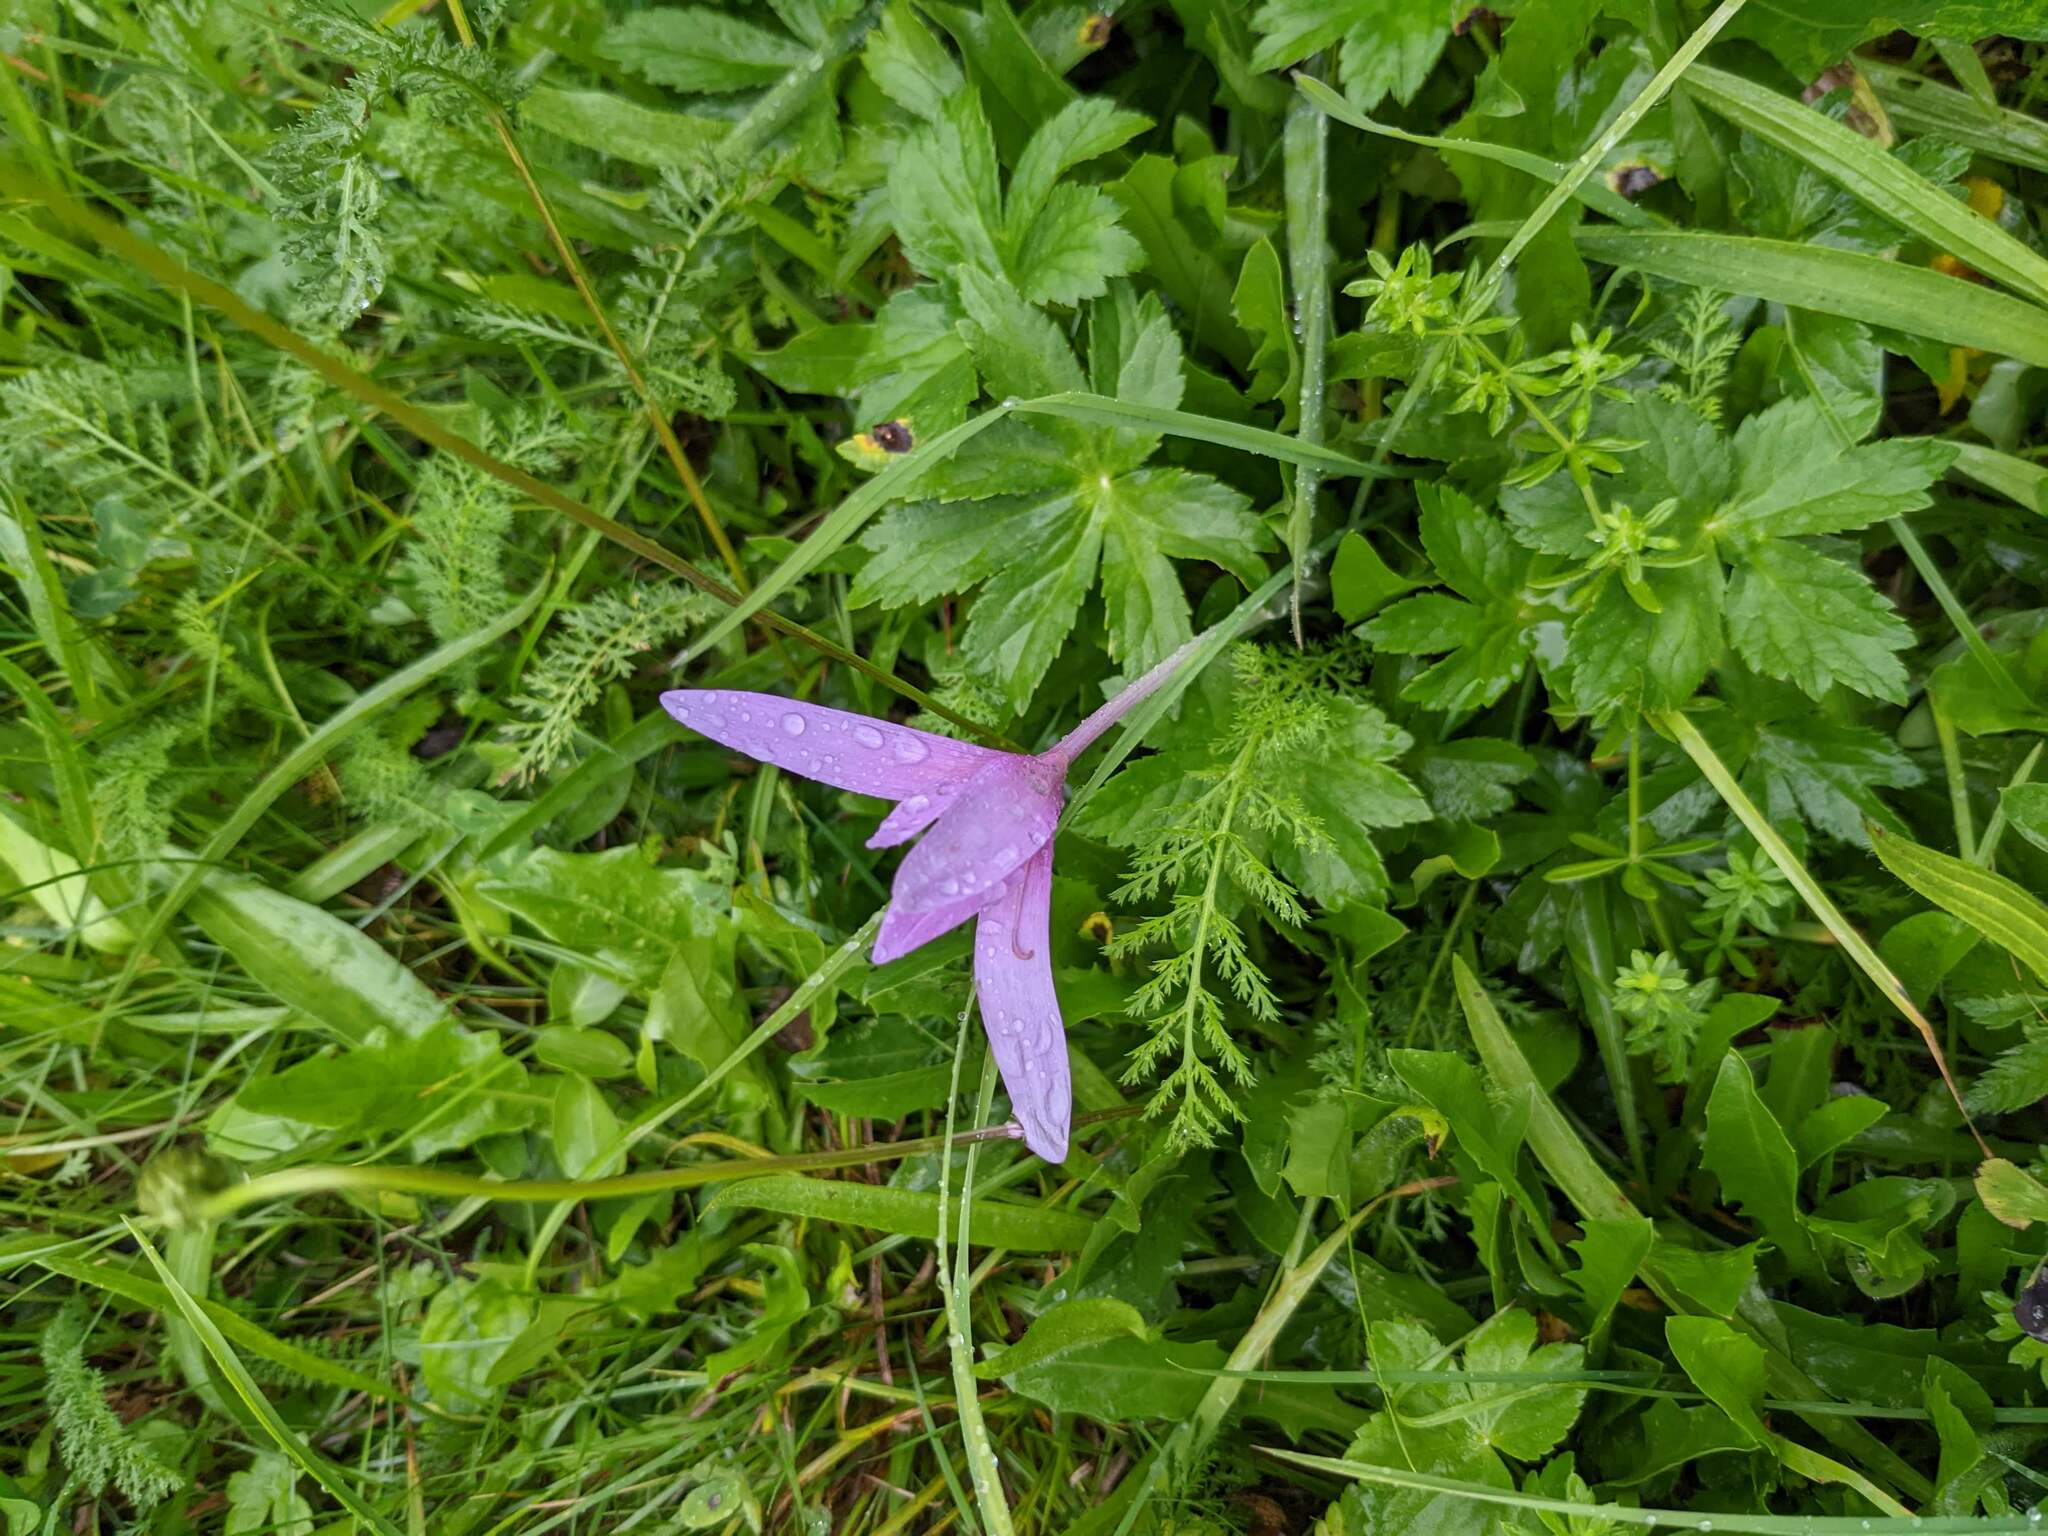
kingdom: Plantae
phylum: Tracheophyta
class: Liliopsida
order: Liliales
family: Colchicaceae
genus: Colchicum
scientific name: Colchicum autumnale
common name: Autumn crocus
